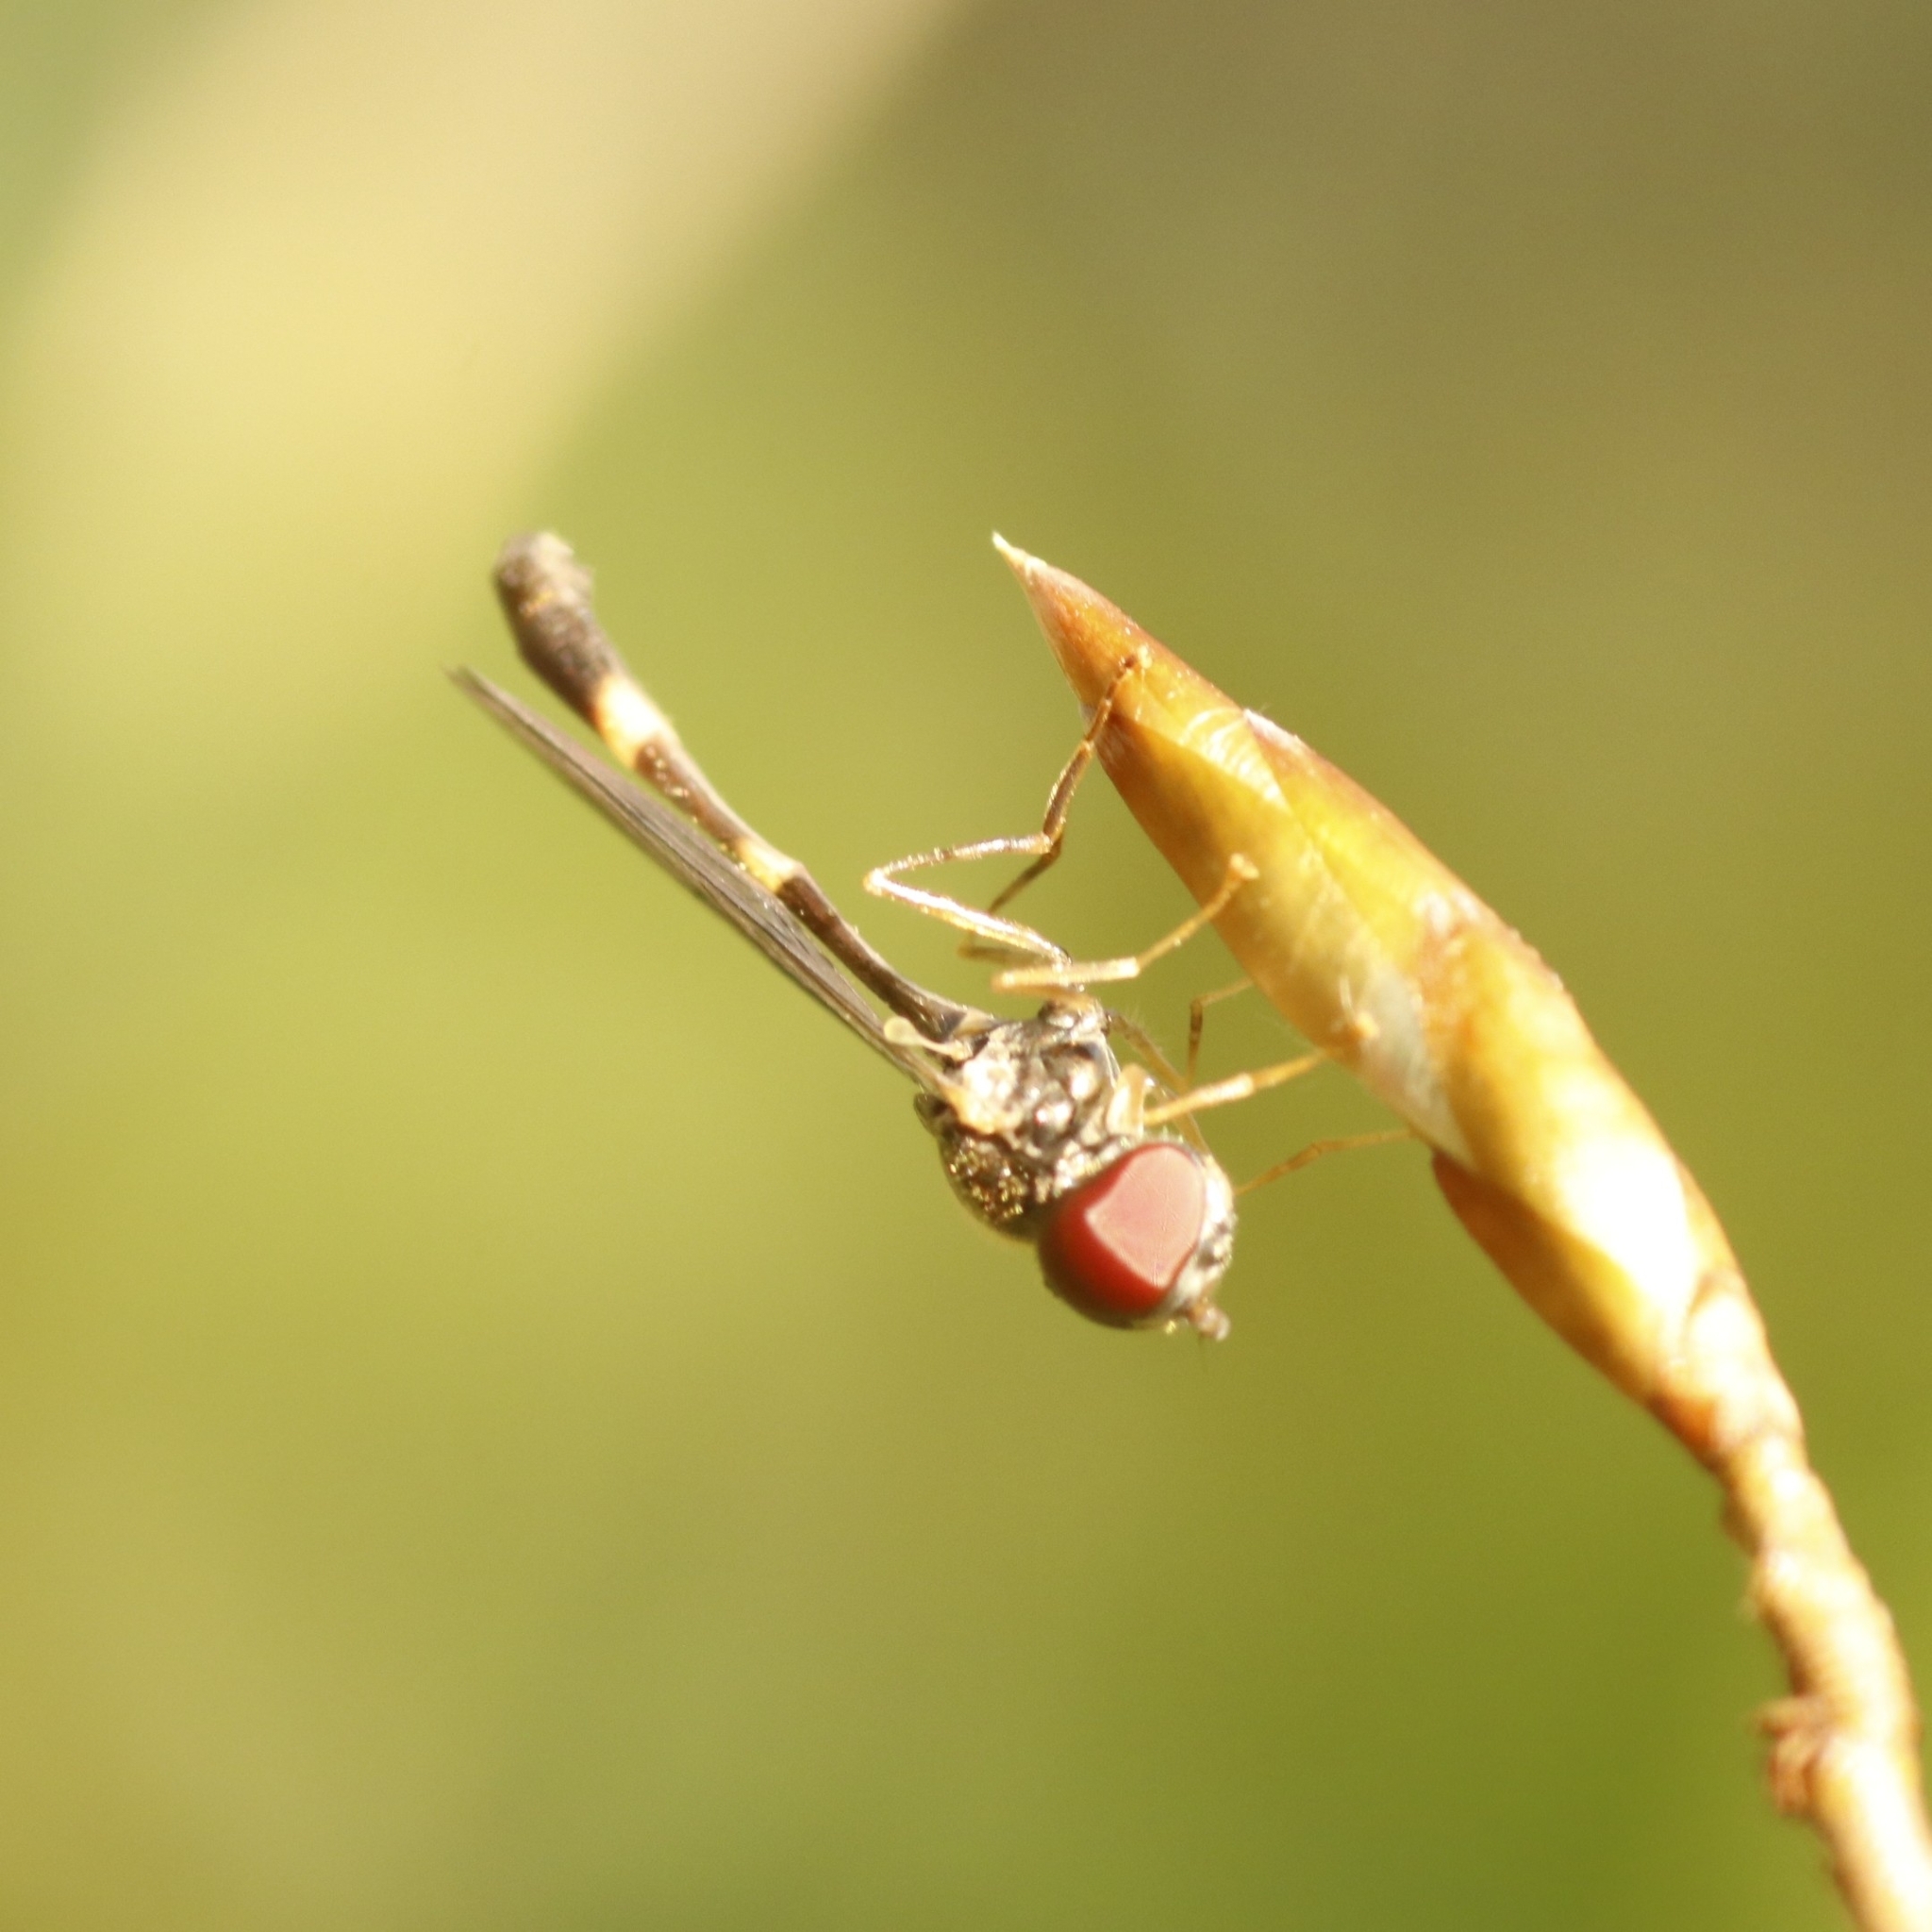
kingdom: Animalia
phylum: Arthropoda
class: Insecta
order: Diptera
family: Syrphidae
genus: Baccha
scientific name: Baccha elongata
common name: Common dainty
